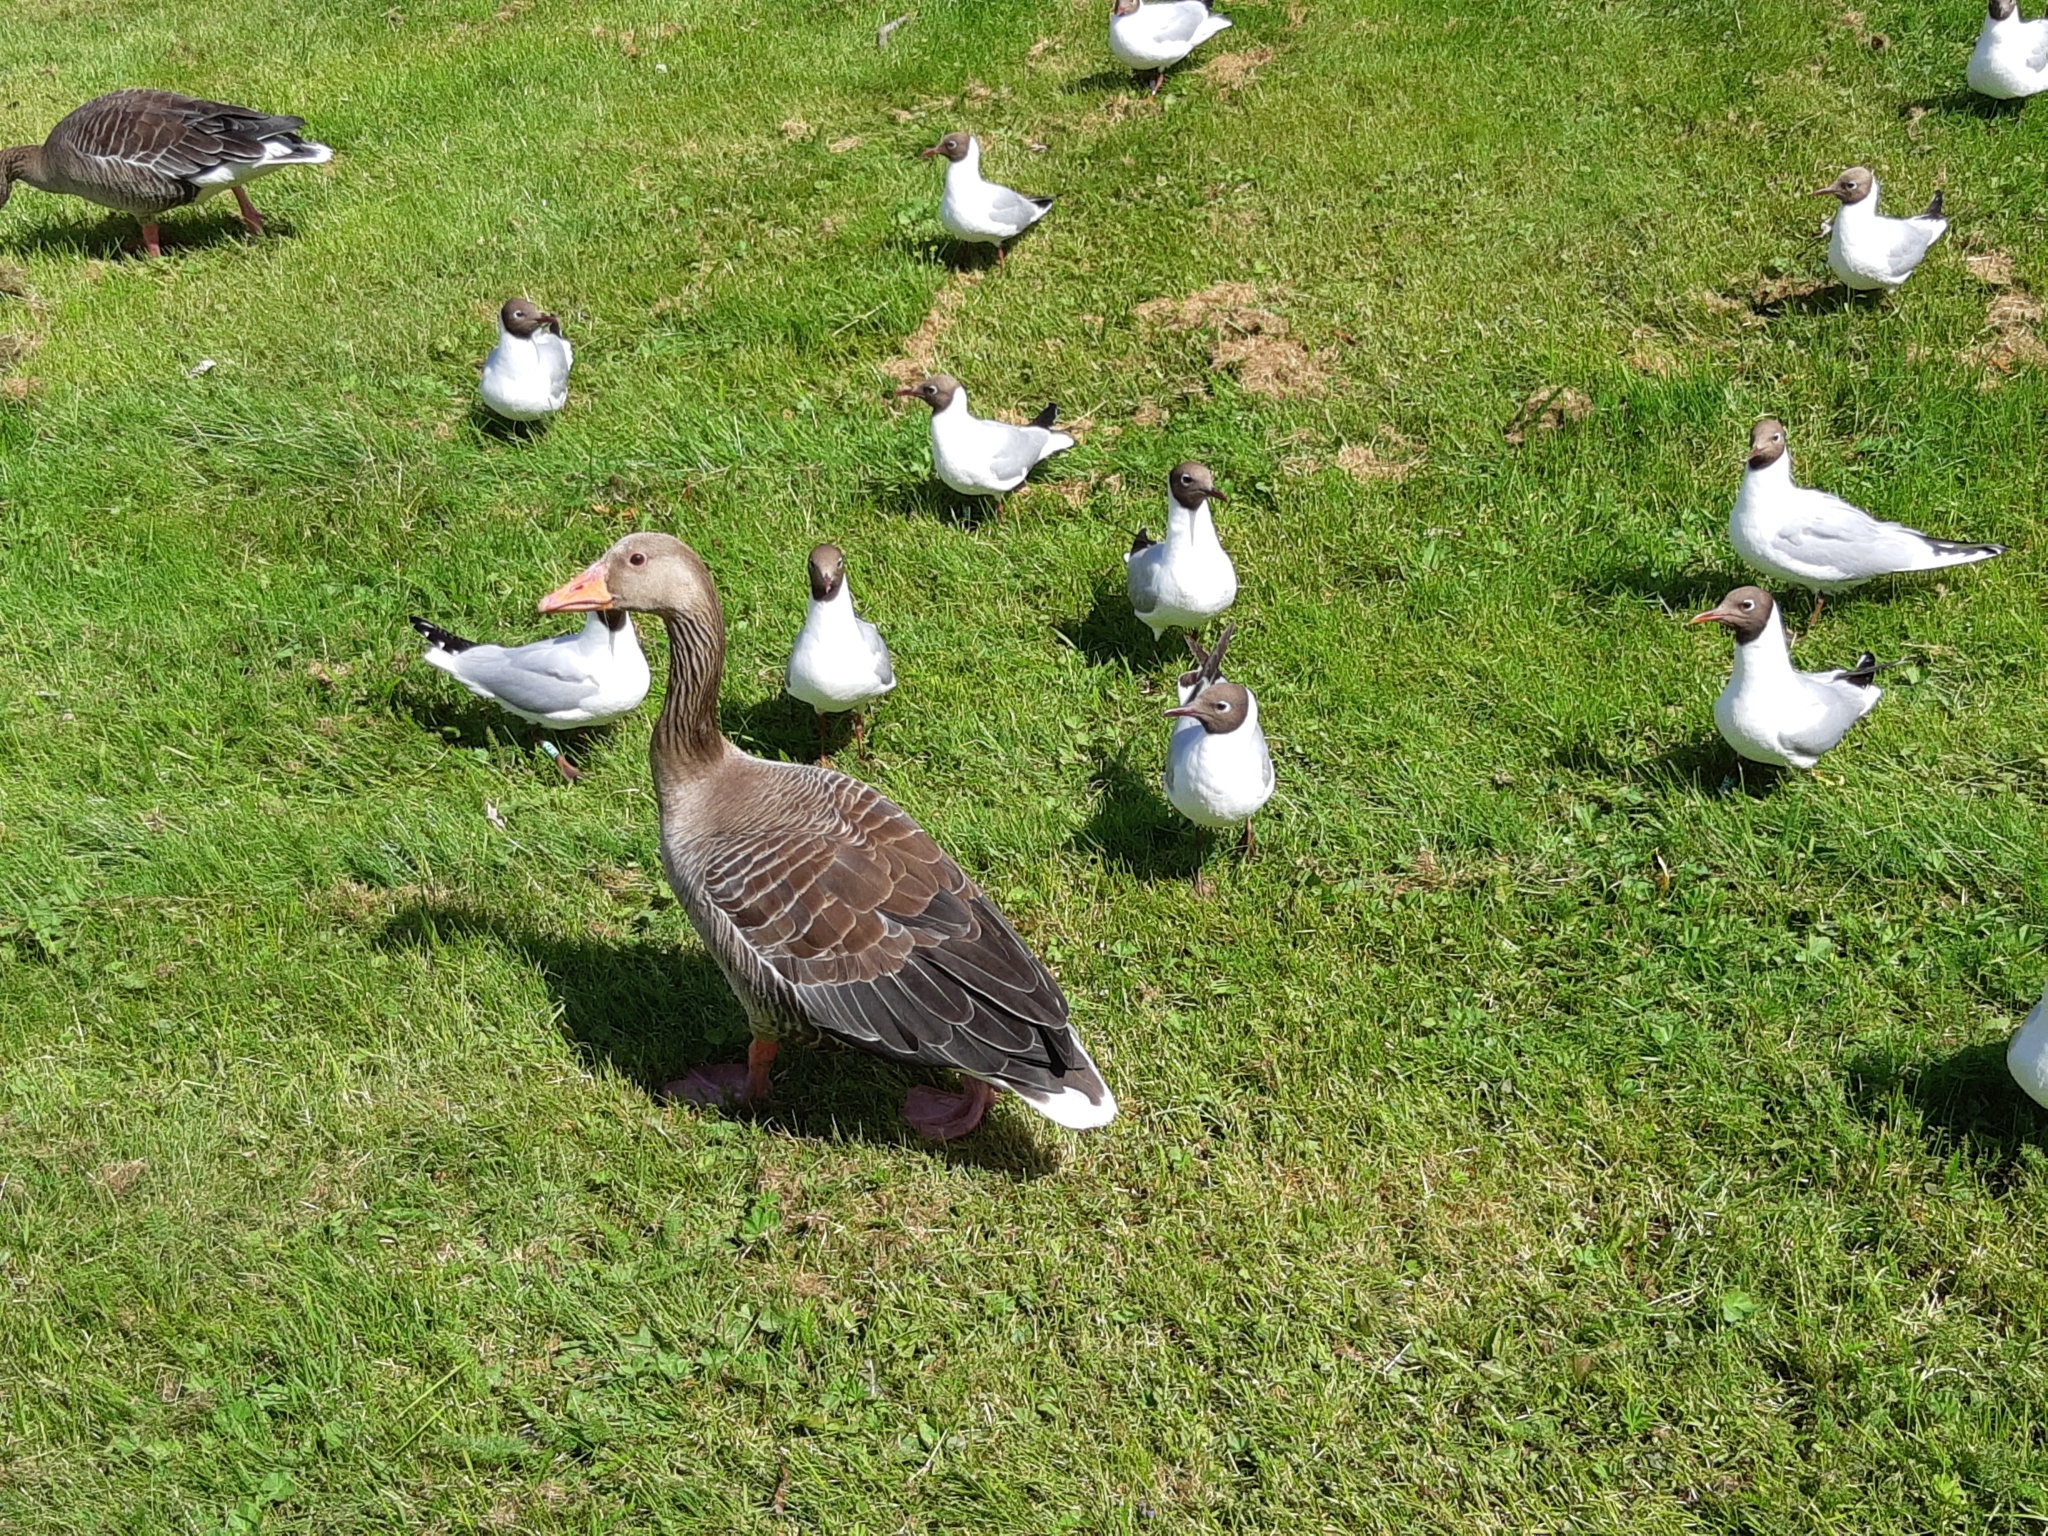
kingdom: Animalia
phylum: Chordata
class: Aves
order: Anseriformes
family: Anatidae
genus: Anser
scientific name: Anser anser
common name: Greylag goose
